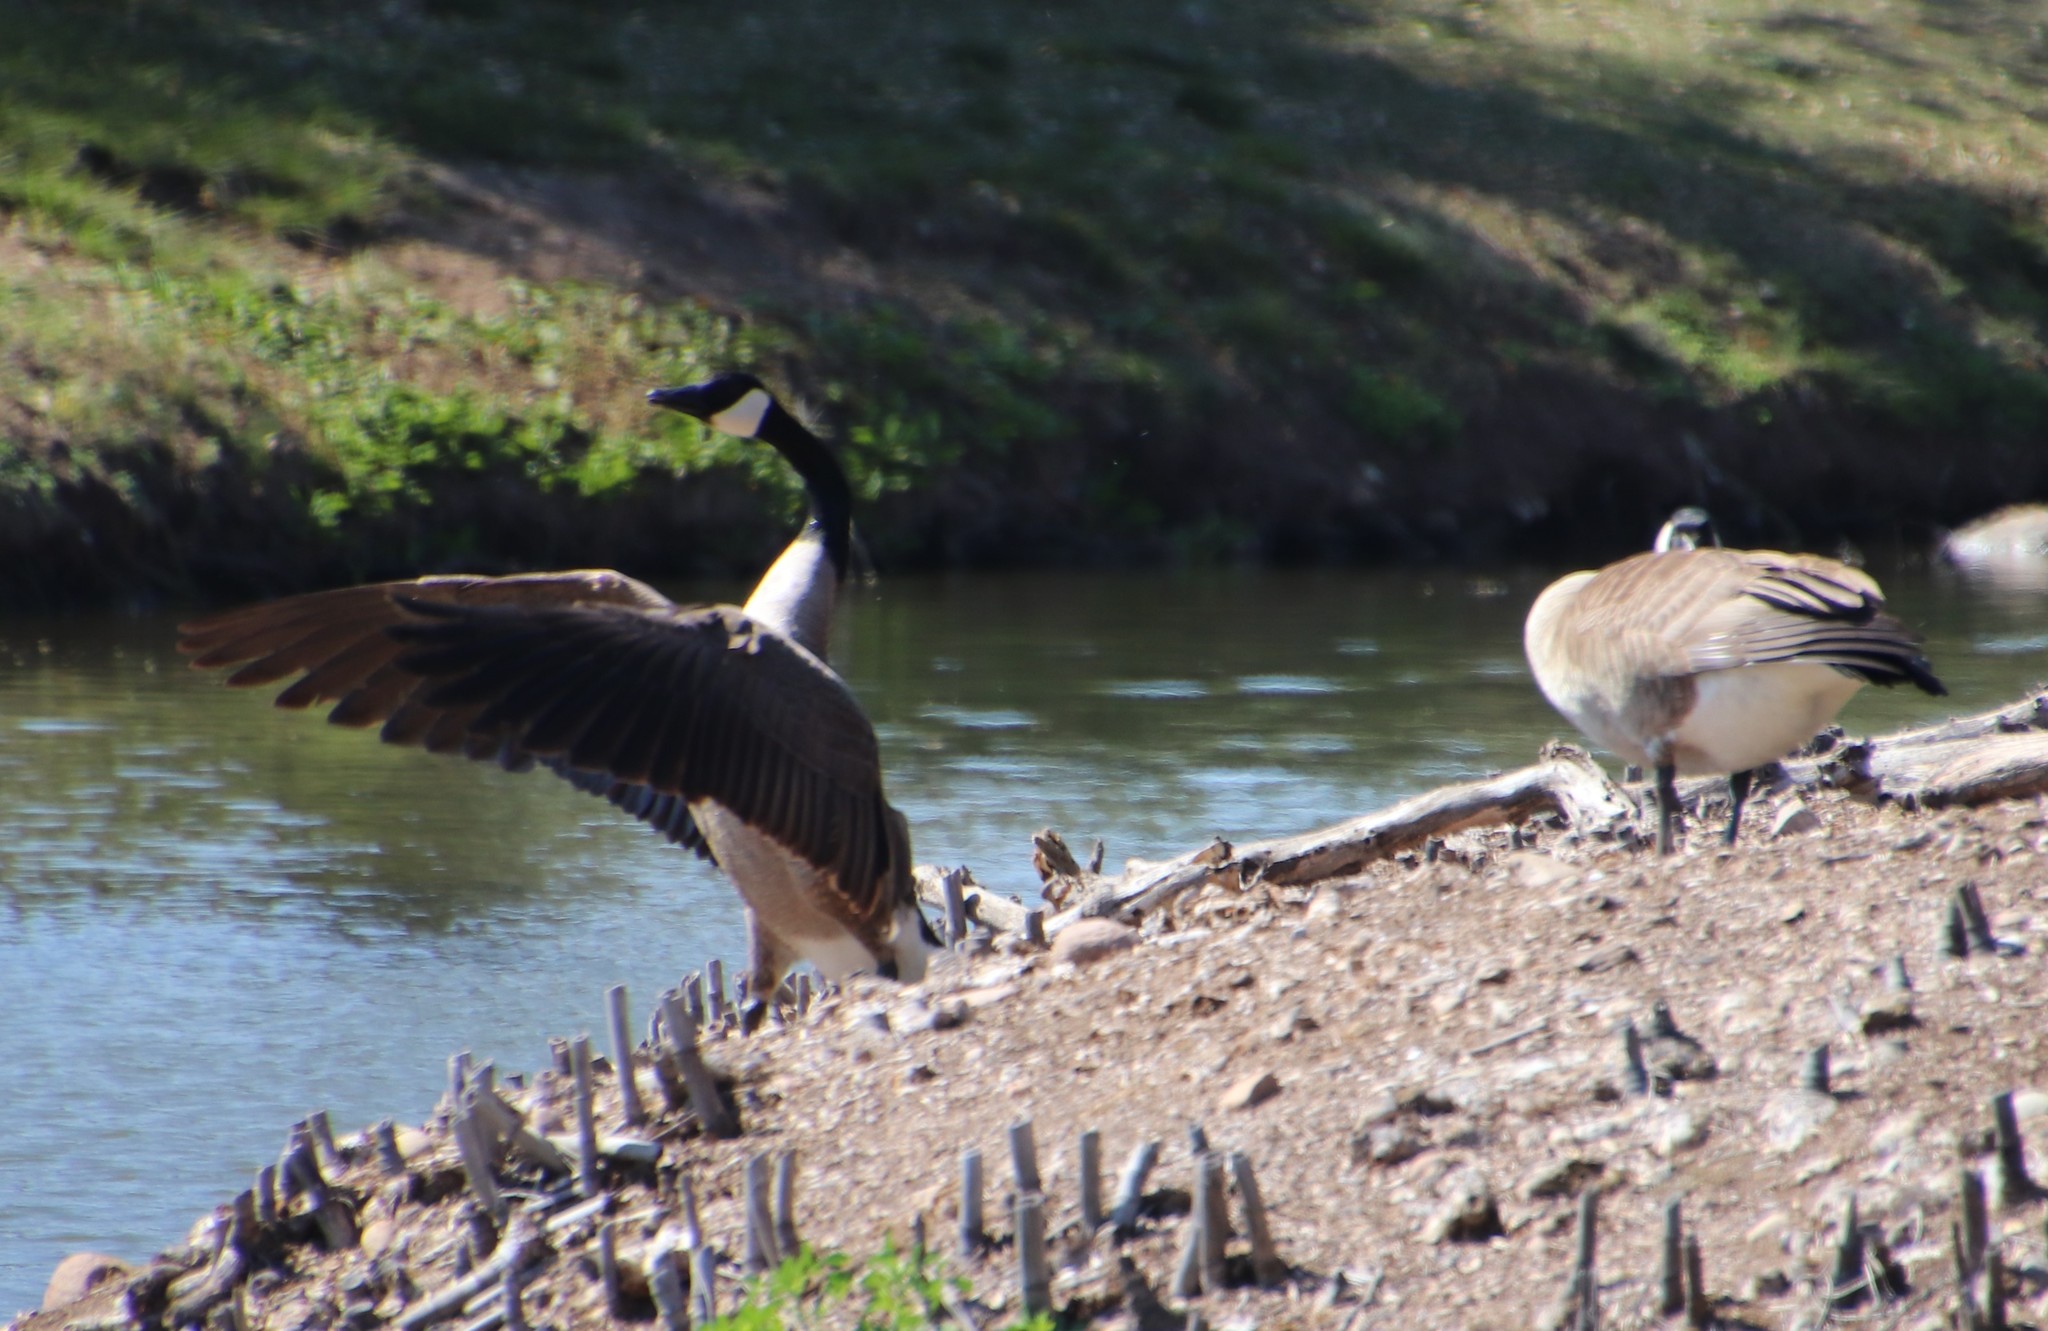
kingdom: Animalia
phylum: Chordata
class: Aves
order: Anseriformes
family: Anatidae
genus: Branta
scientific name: Branta canadensis
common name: Canada goose
